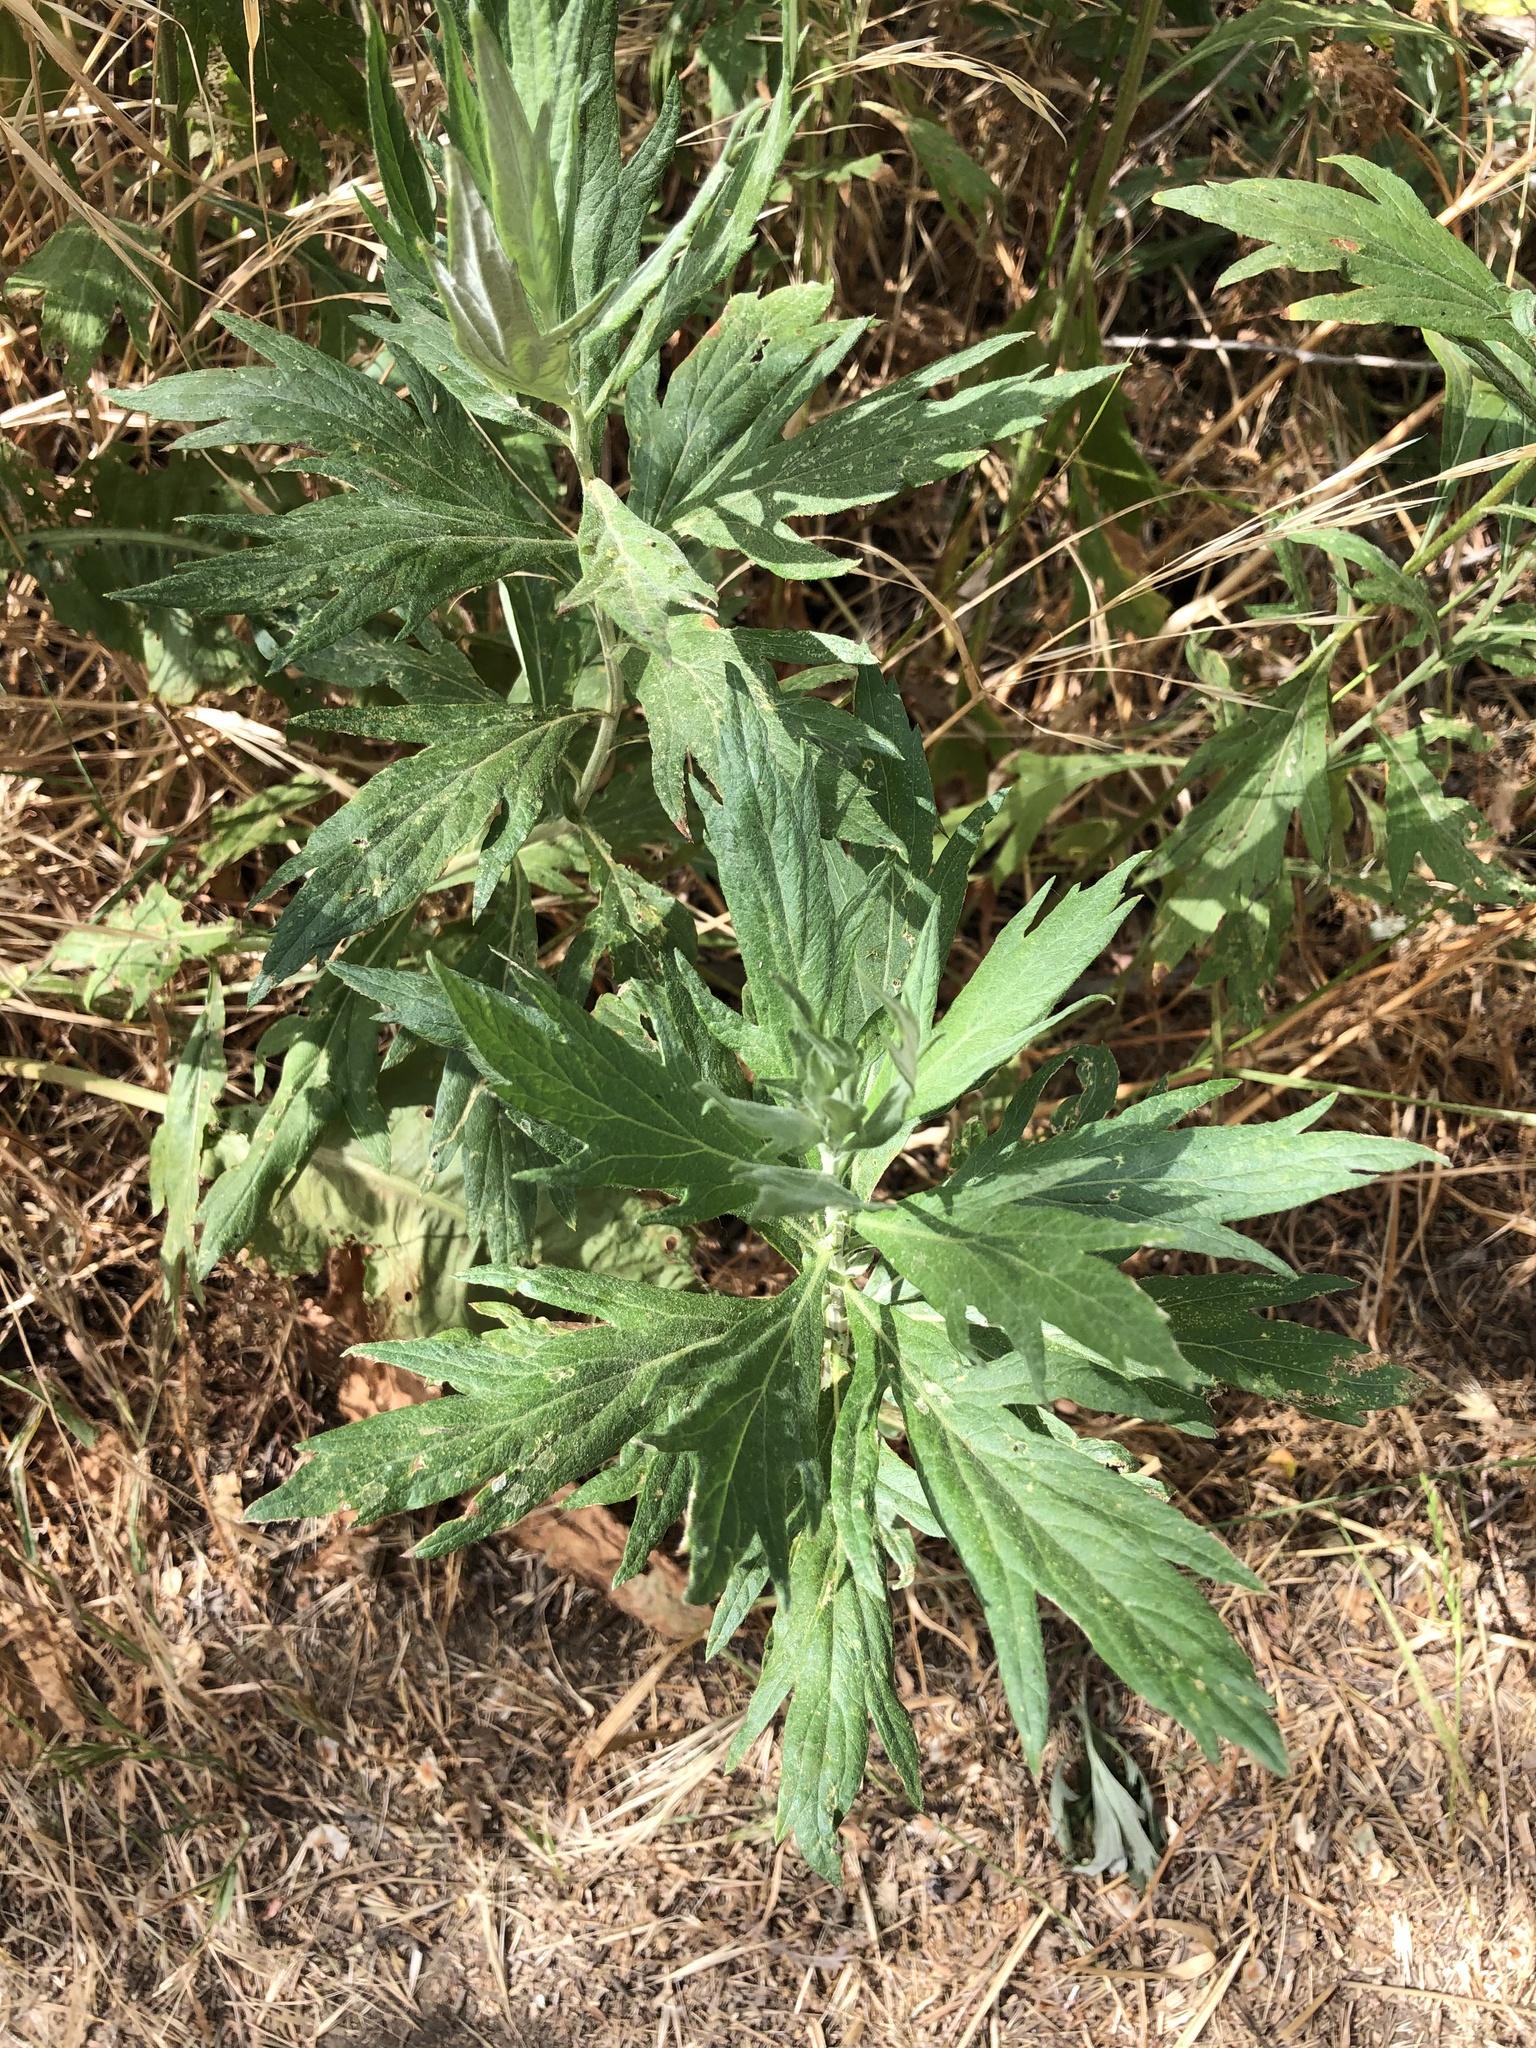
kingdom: Plantae
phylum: Tracheophyta
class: Magnoliopsida
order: Asterales
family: Asteraceae
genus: Artemisia
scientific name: Artemisia douglasiana
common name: Northwest mugwort
